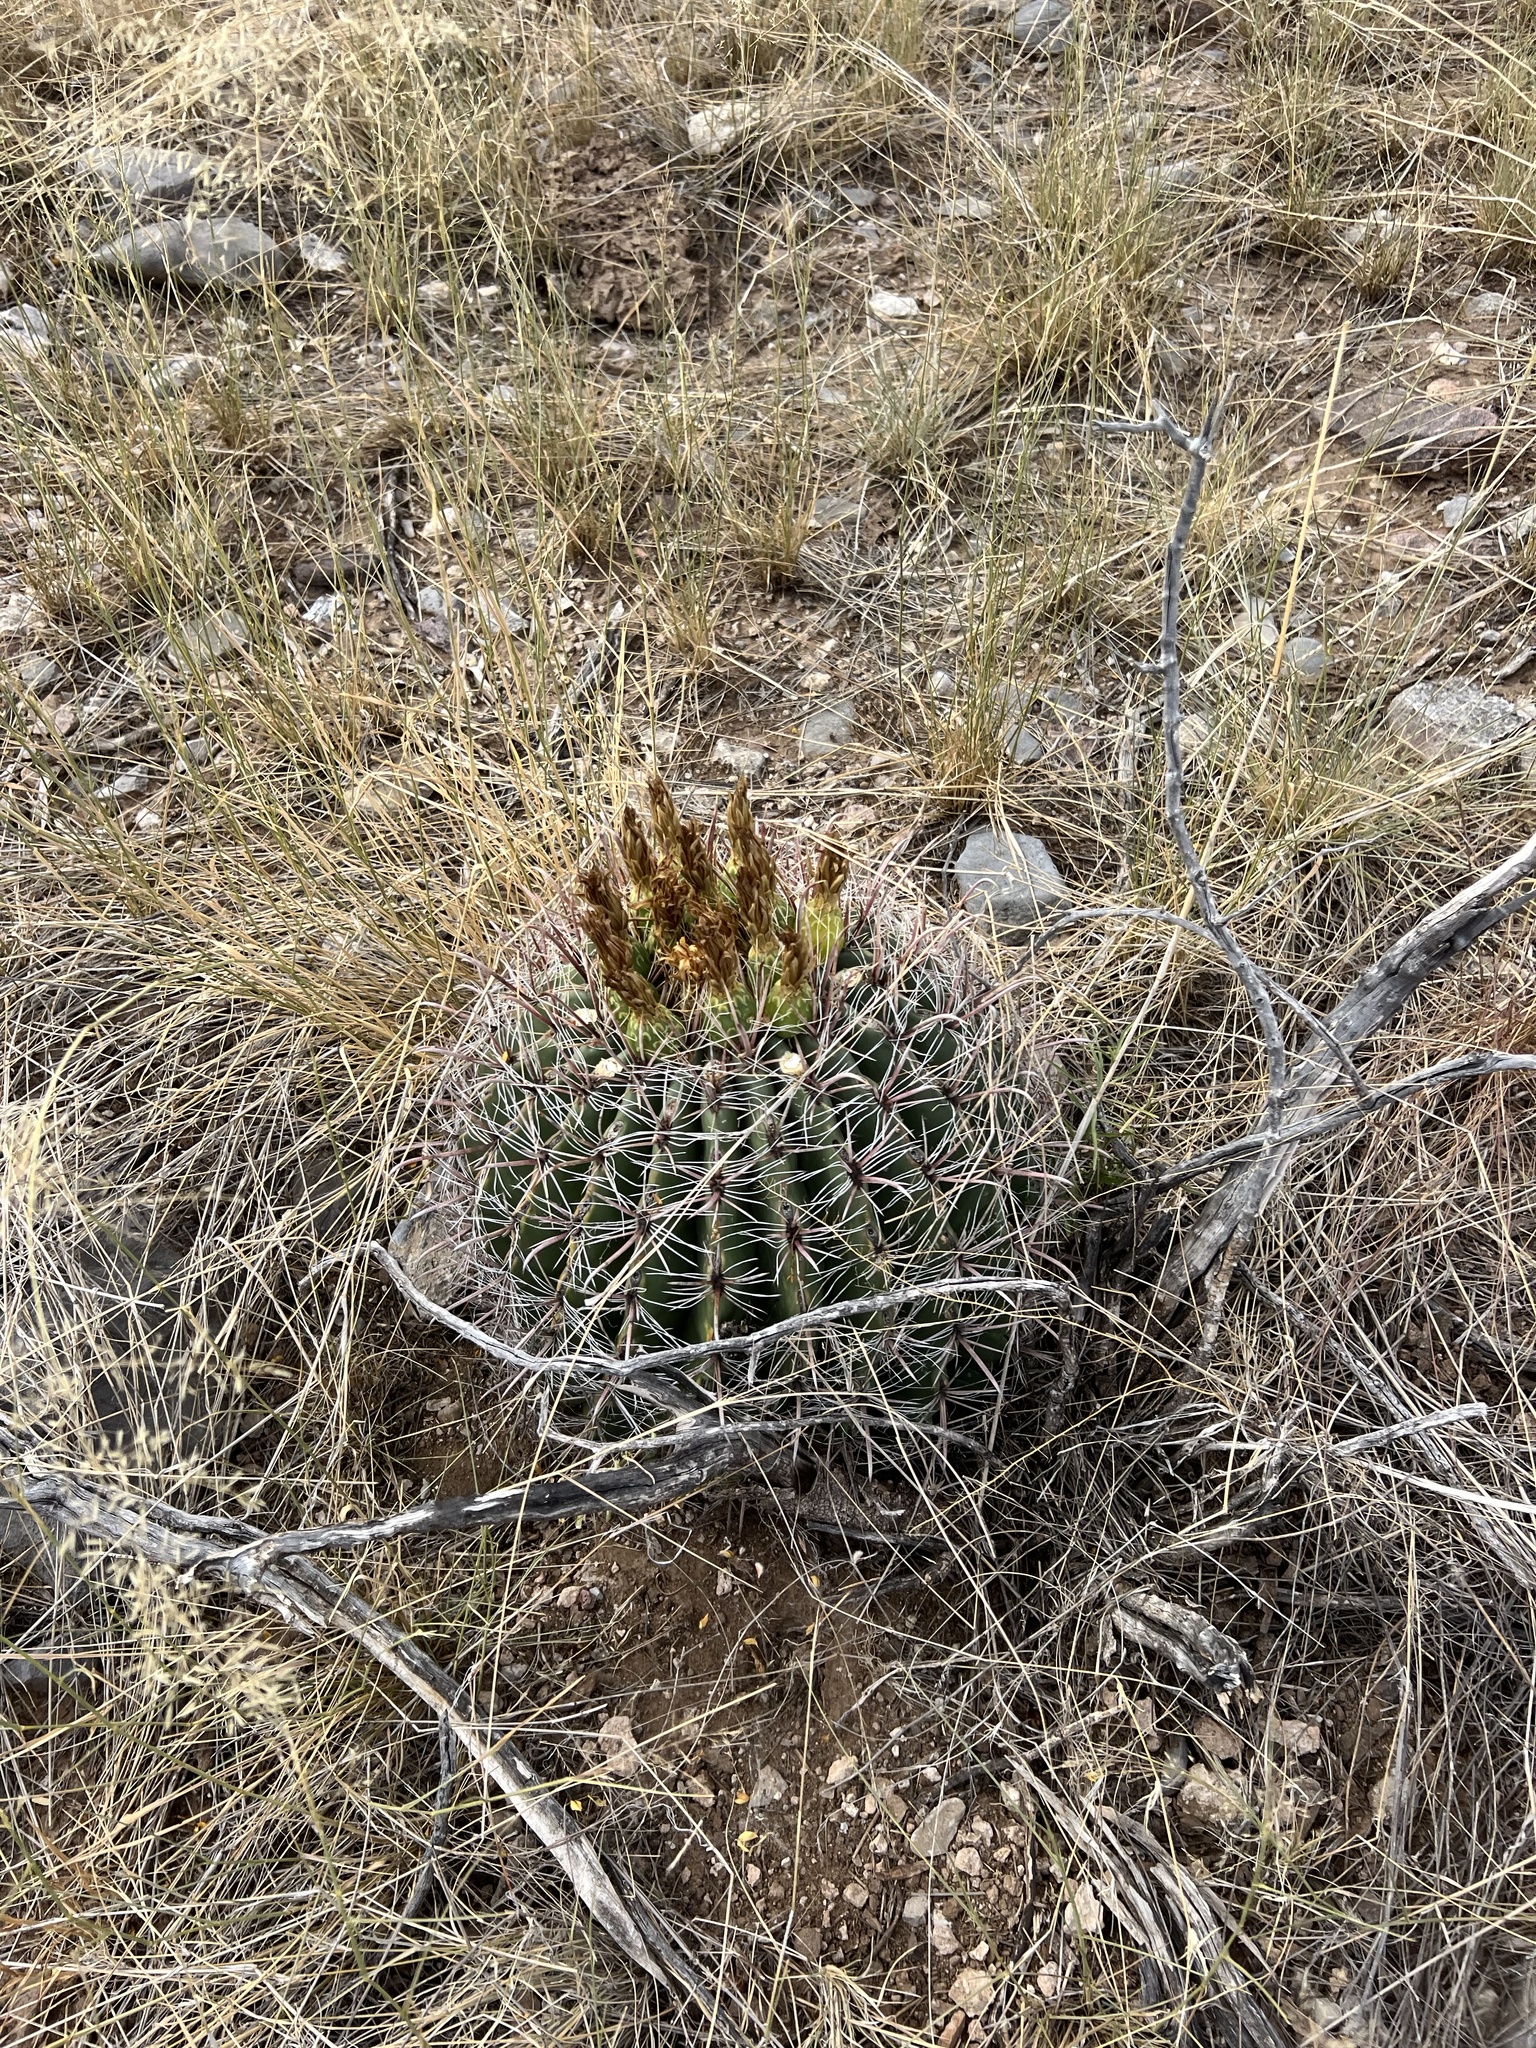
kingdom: Plantae
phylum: Tracheophyta
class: Magnoliopsida
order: Caryophyllales
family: Cactaceae
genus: Ferocactus
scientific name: Ferocactus wislizeni
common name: Candy barrel cactus
